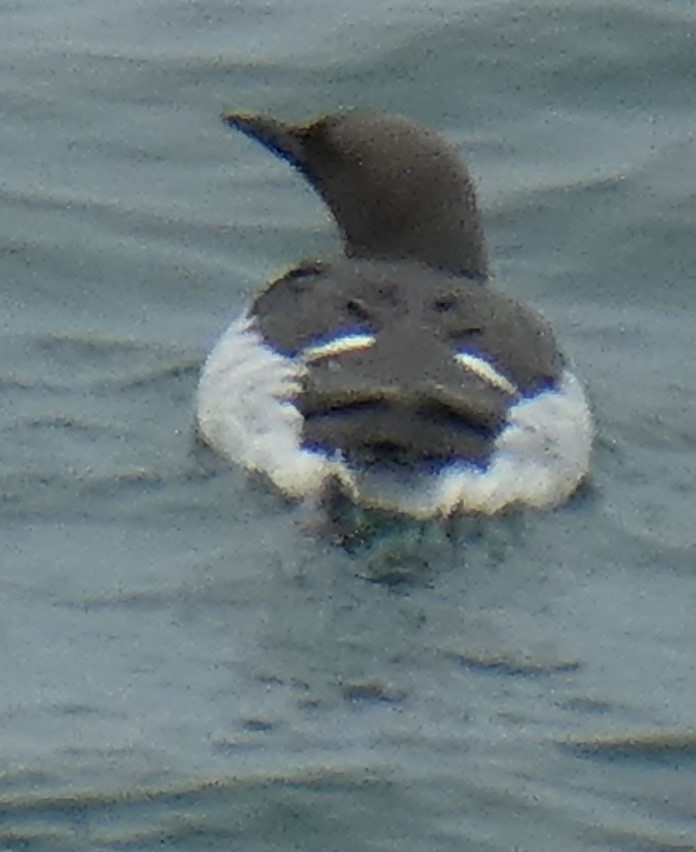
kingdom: Animalia
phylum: Chordata
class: Aves
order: Charadriiformes
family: Alcidae
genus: Uria
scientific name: Uria aalge
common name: Common murre
